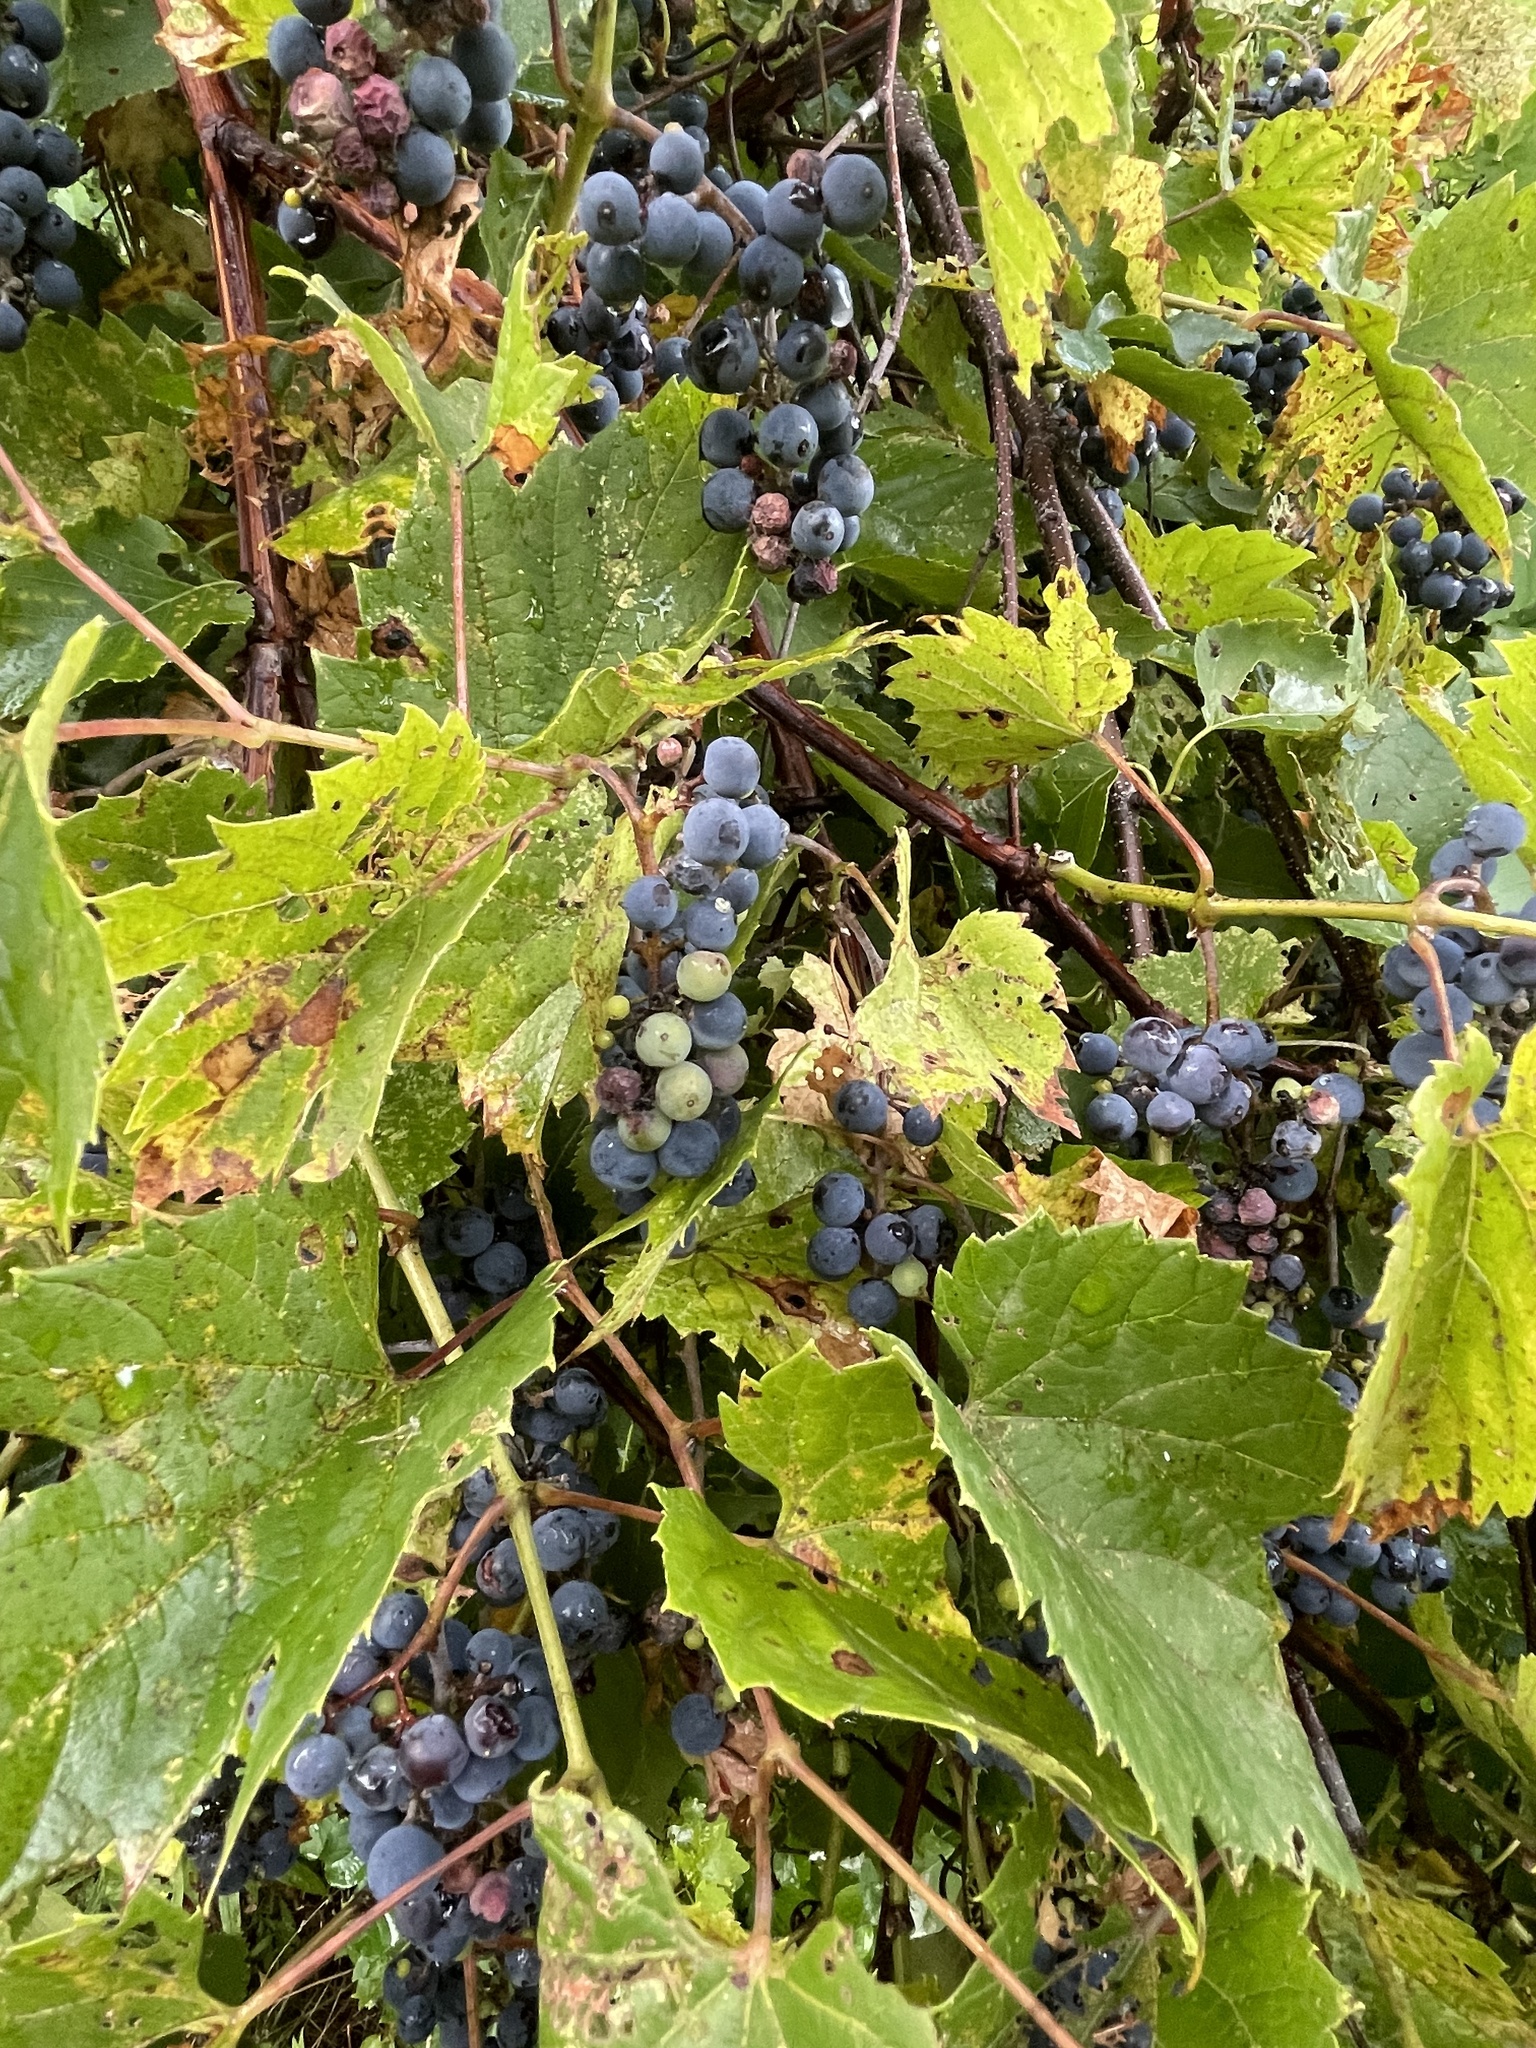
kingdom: Plantae
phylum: Tracheophyta
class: Magnoliopsida
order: Vitales
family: Vitaceae
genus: Vitis
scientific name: Vitis riparia
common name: Frost grape
